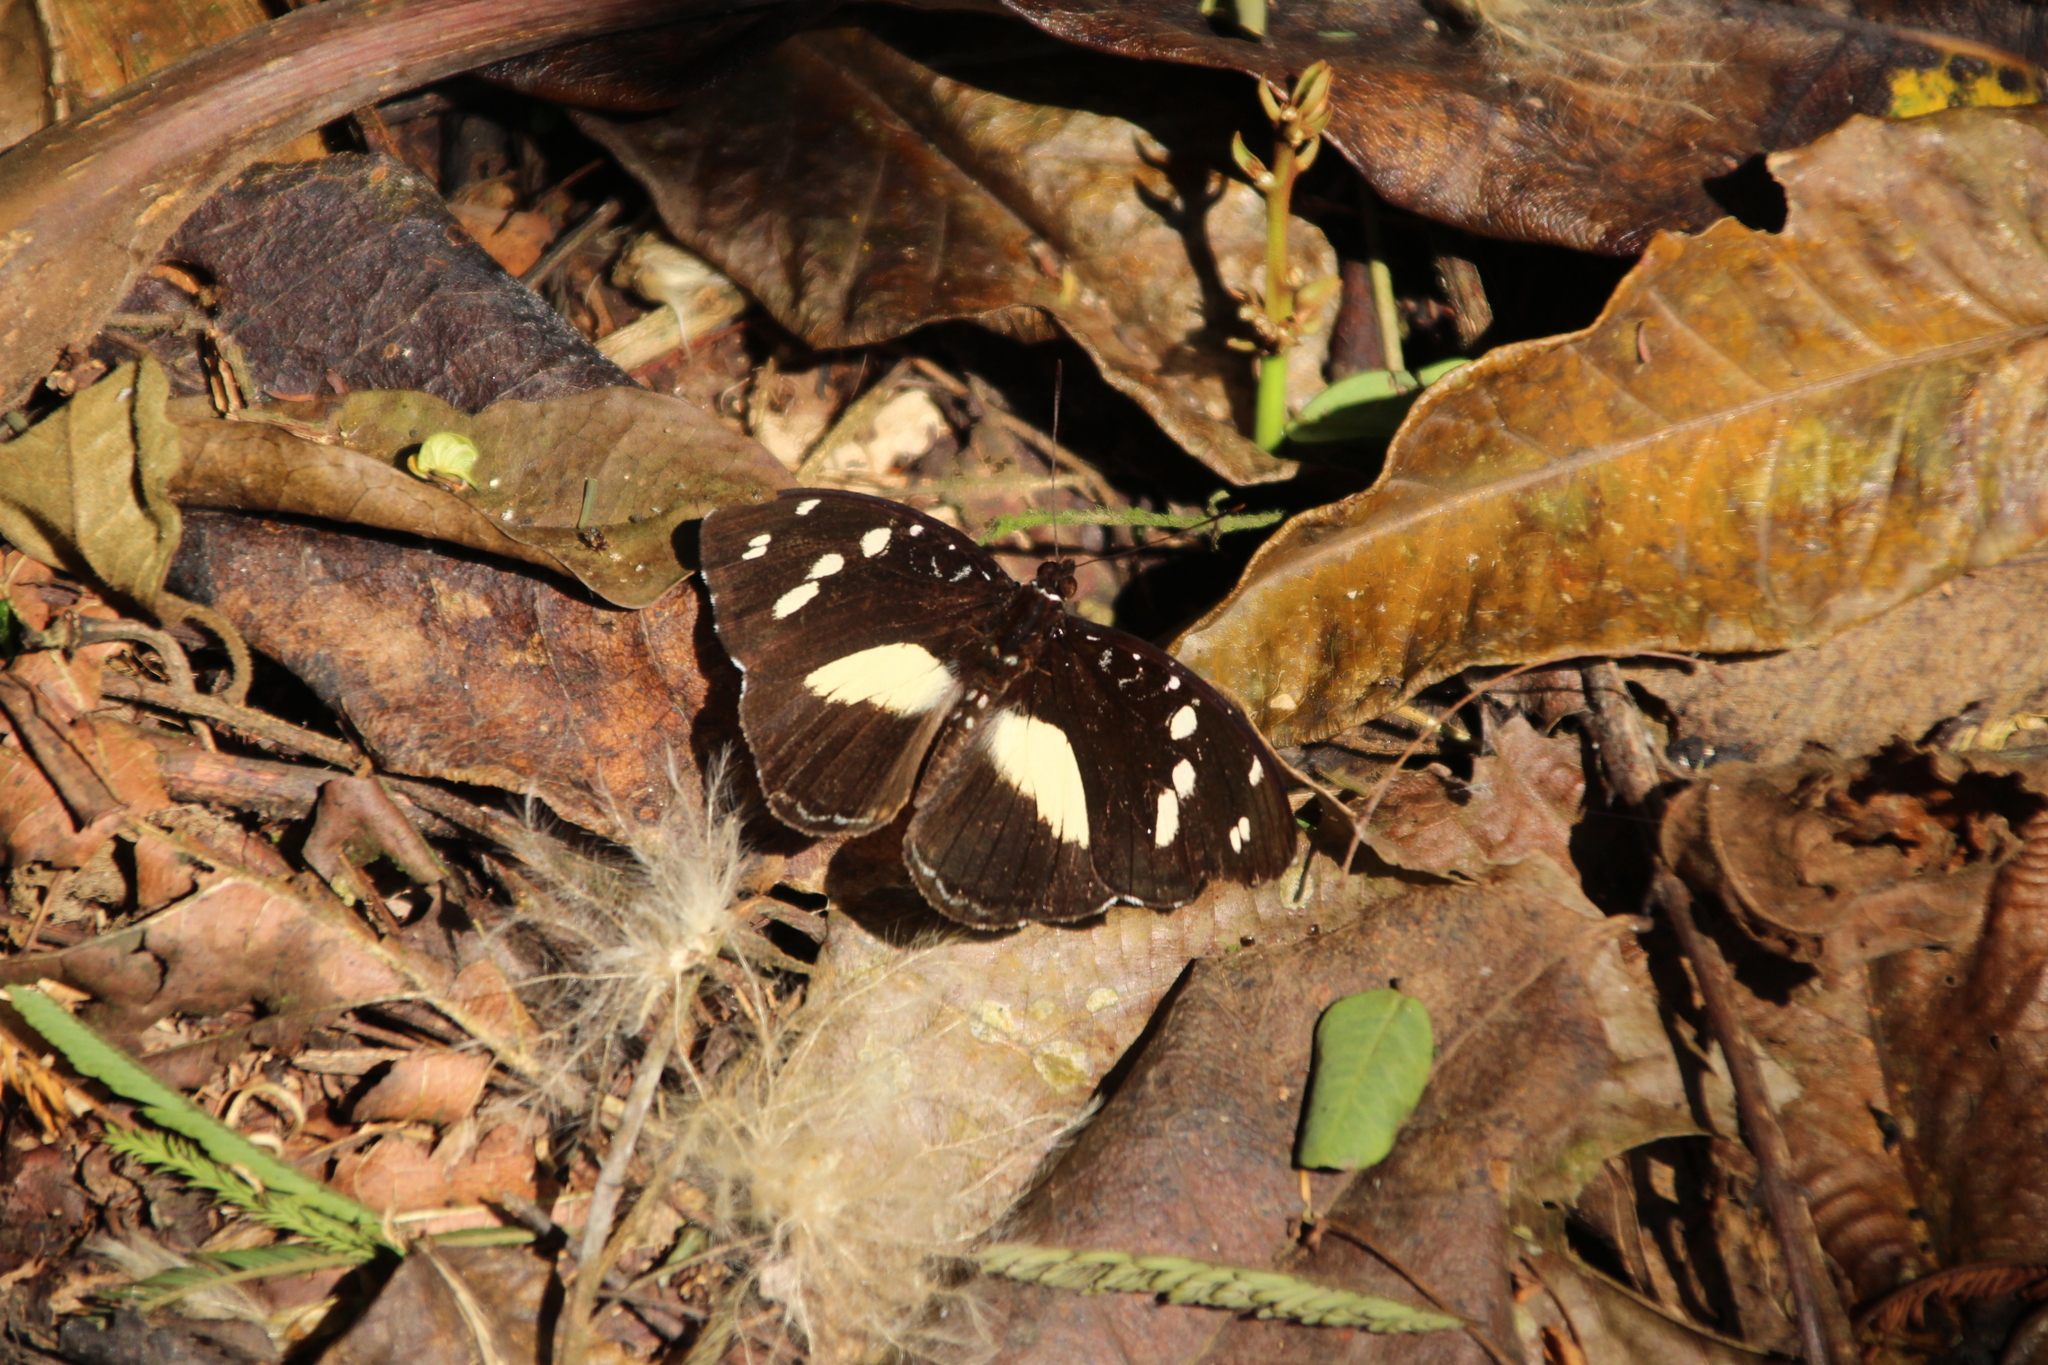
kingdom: Animalia
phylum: Arthropoda
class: Insecta
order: Lepidoptera
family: Nymphalidae
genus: Aterica
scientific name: Aterica galene
